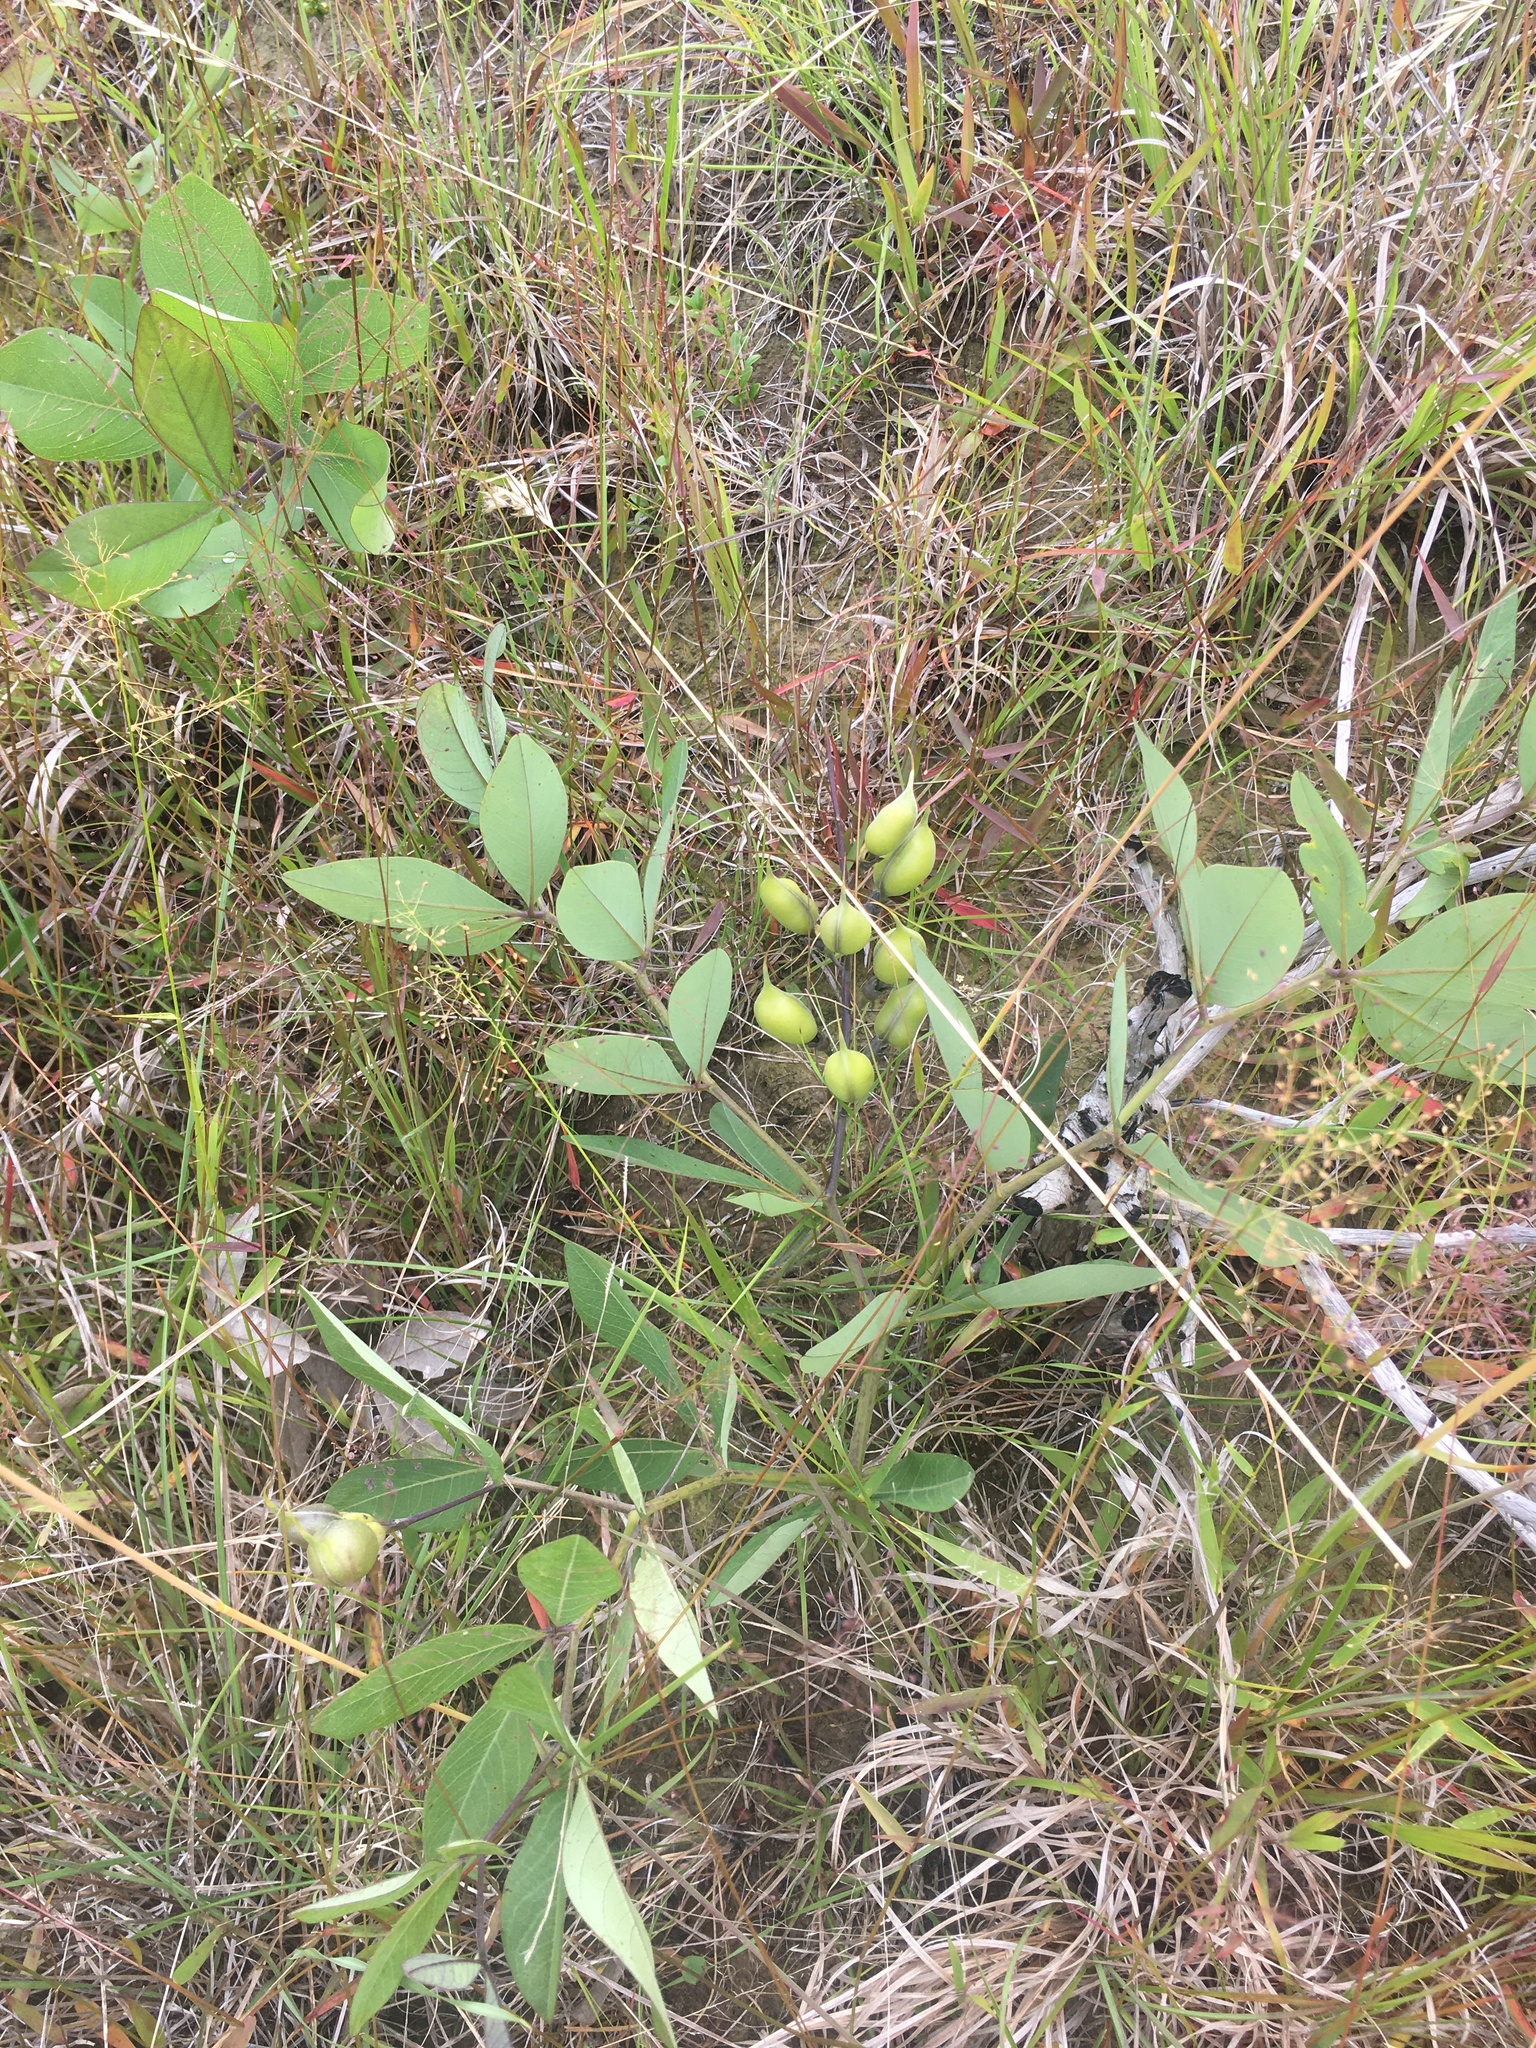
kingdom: Plantae
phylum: Tracheophyta
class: Magnoliopsida
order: Fabales
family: Fabaceae
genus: Baptisia
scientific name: Baptisia cinerea
